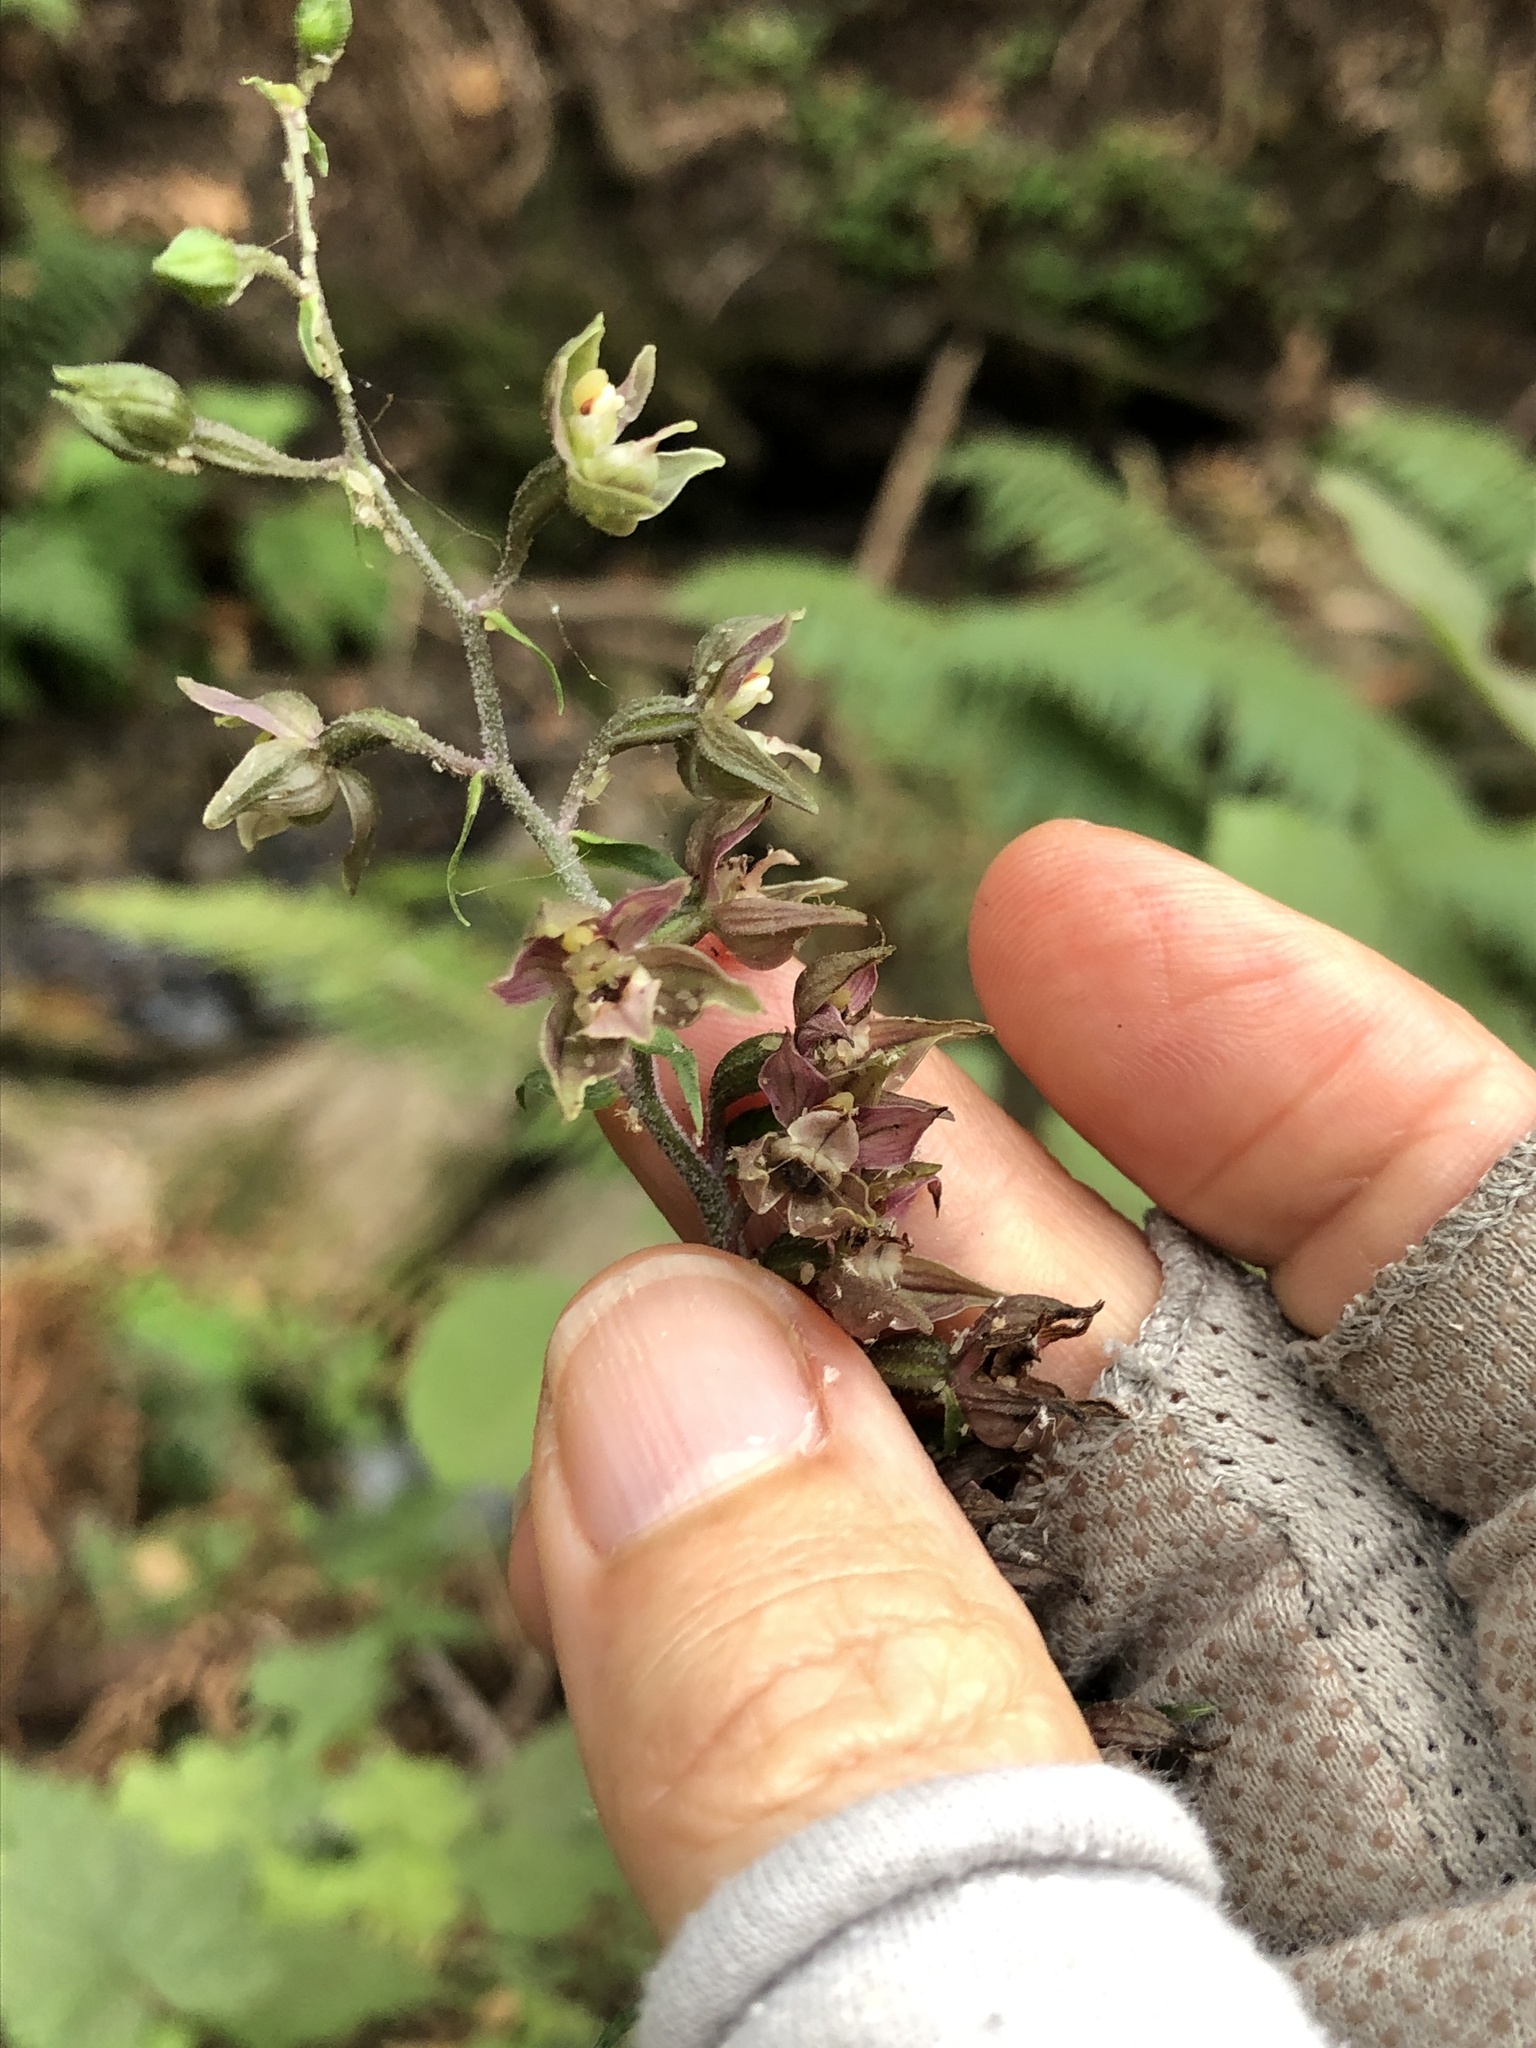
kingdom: Plantae
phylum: Tracheophyta
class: Liliopsida
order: Asparagales
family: Orchidaceae
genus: Epipactis
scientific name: Epipactis helleborine
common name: Broad-leaved helleborine
